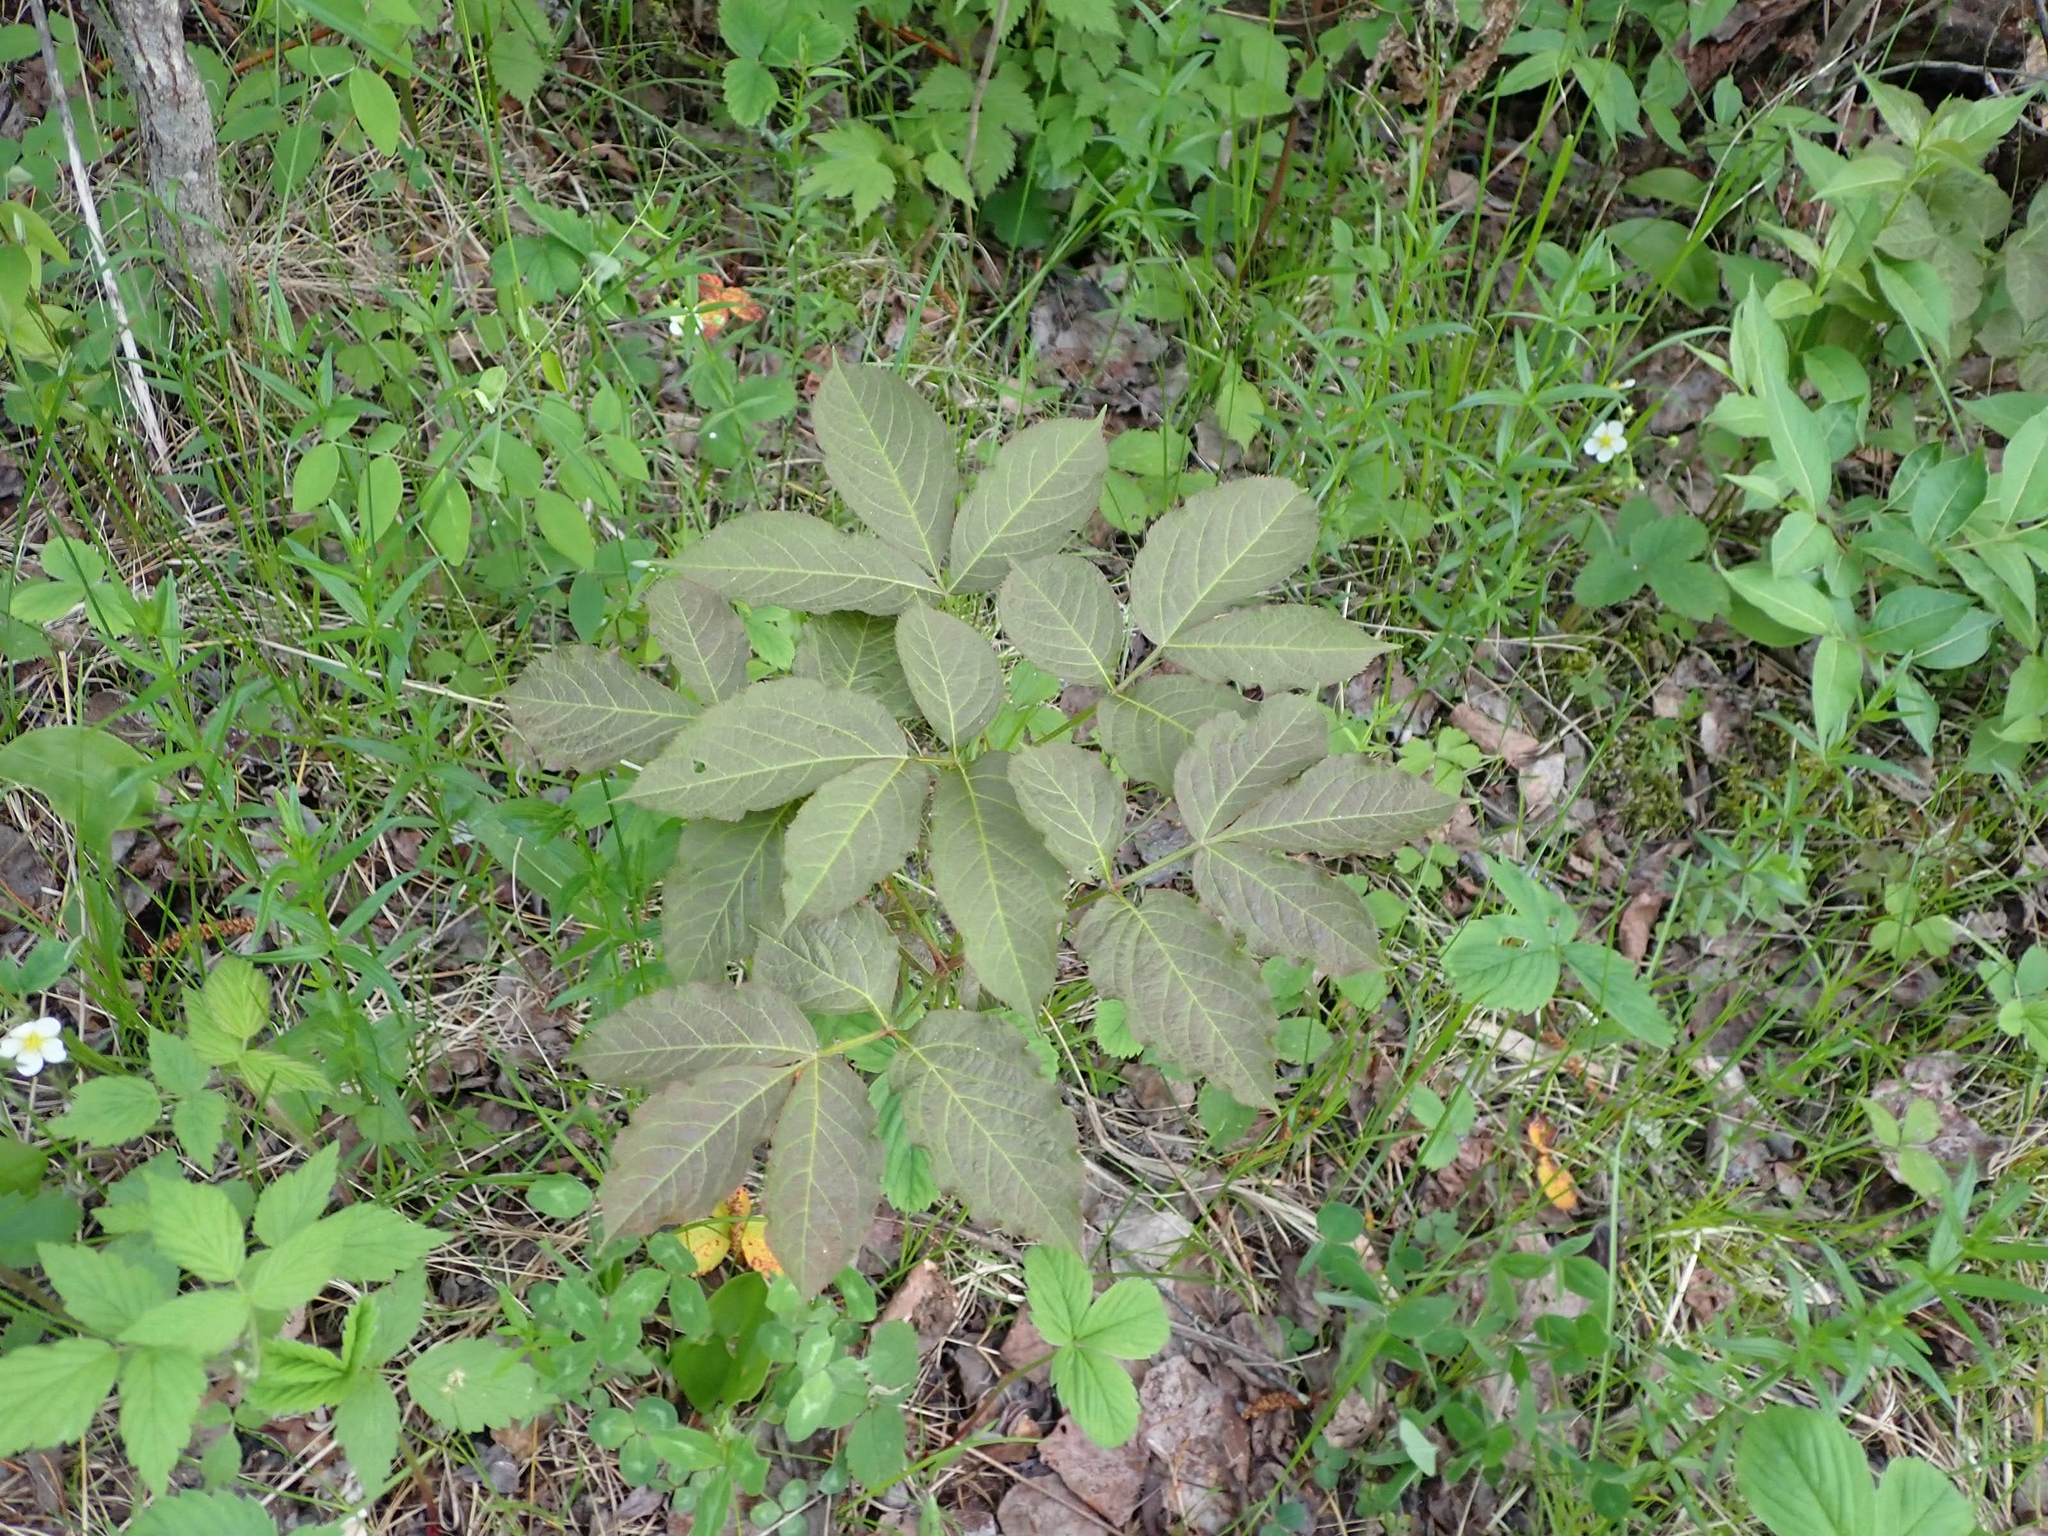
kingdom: Plantae
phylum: Tracheophyta
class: Magnoliopsida
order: Apiales
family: Araliaceae
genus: Aralia
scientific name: Aralia nudicaulis
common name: Wild sarsaparilla
